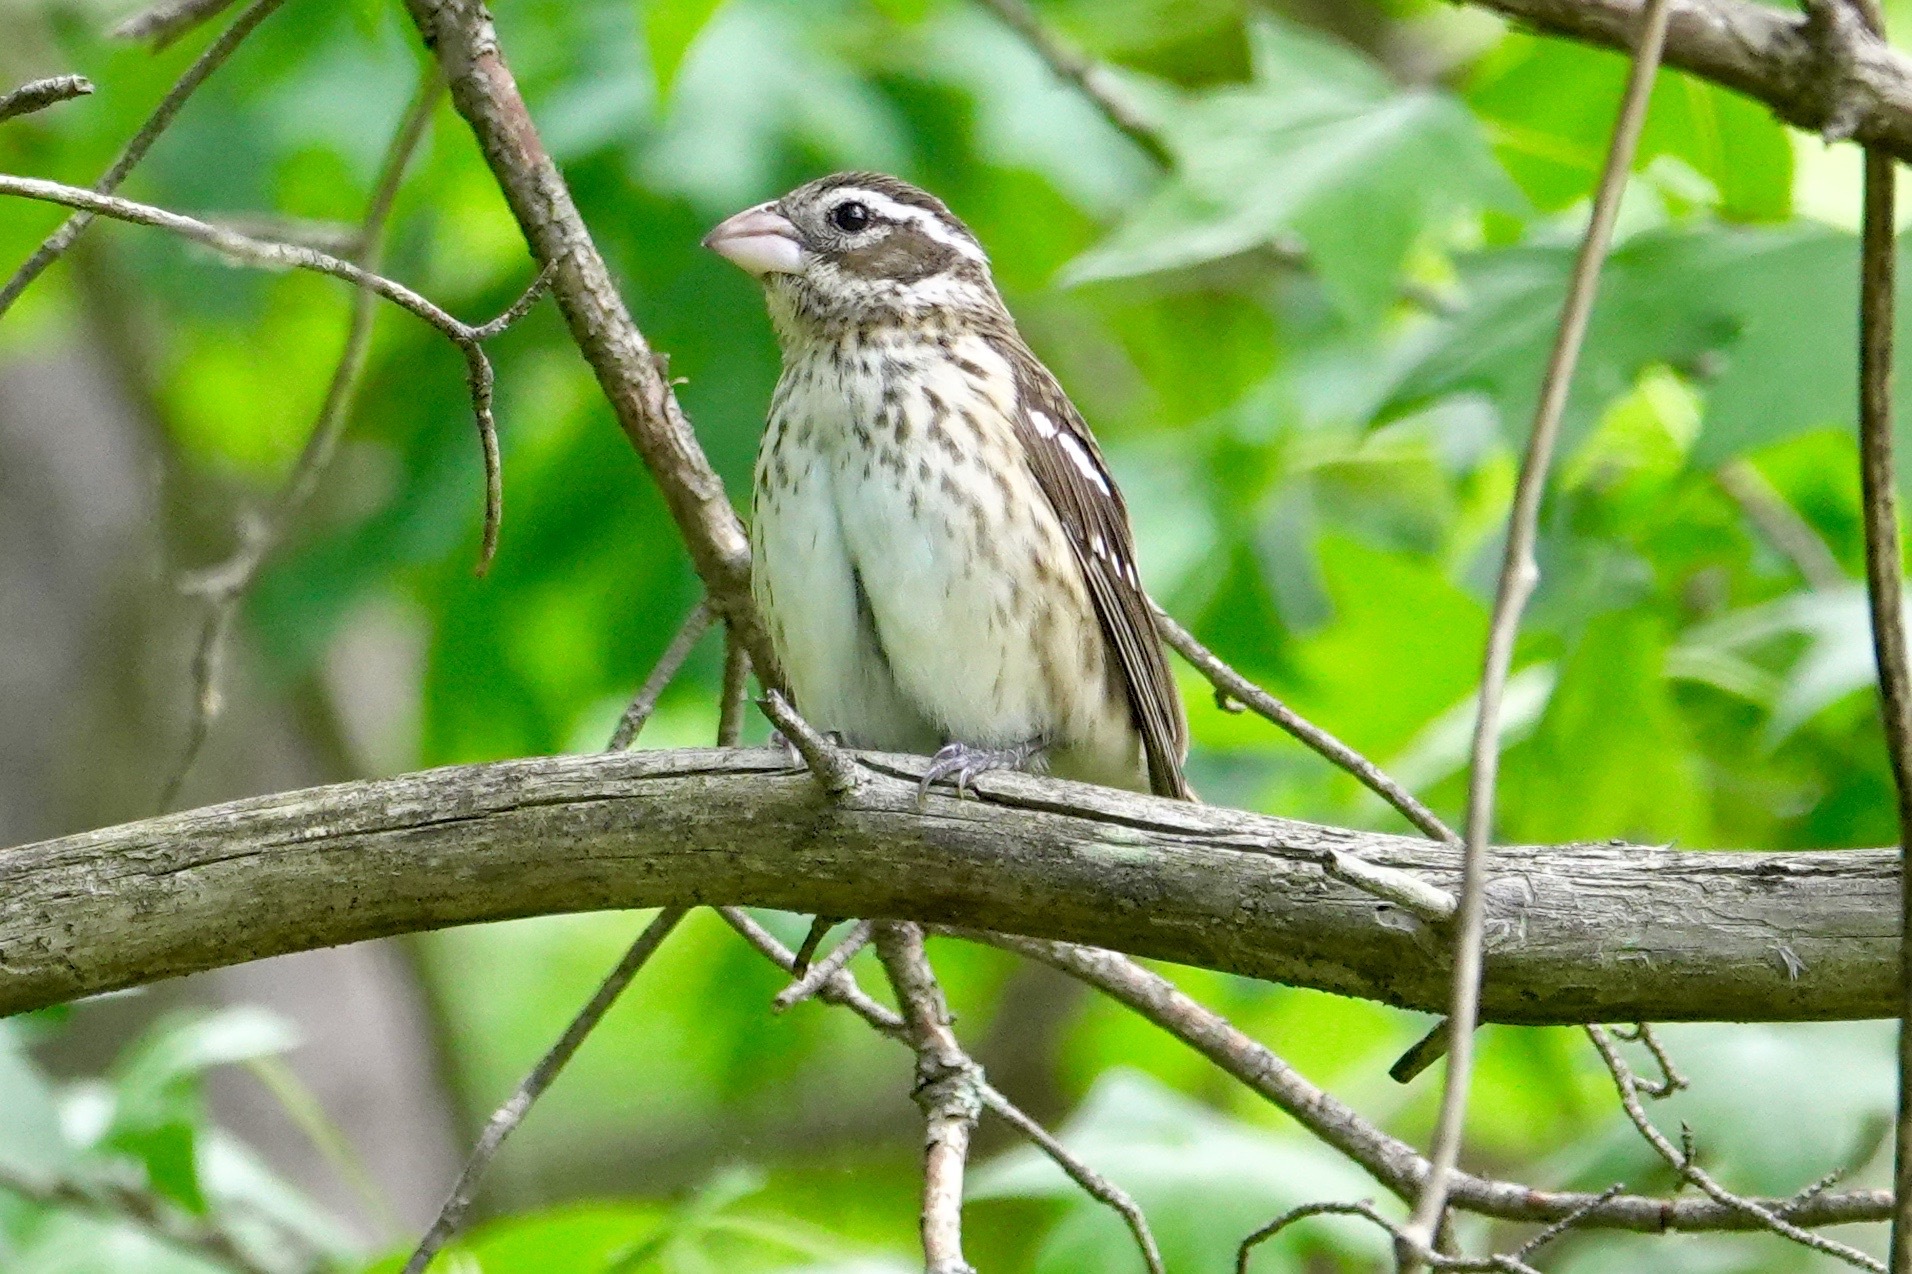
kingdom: Animalia
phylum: Chordata
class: Aves
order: Passeriformes
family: Cardinalidae
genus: Pheucticus
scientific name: Pheucticus ludovicianus
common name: Rose-breasted grosbeak
